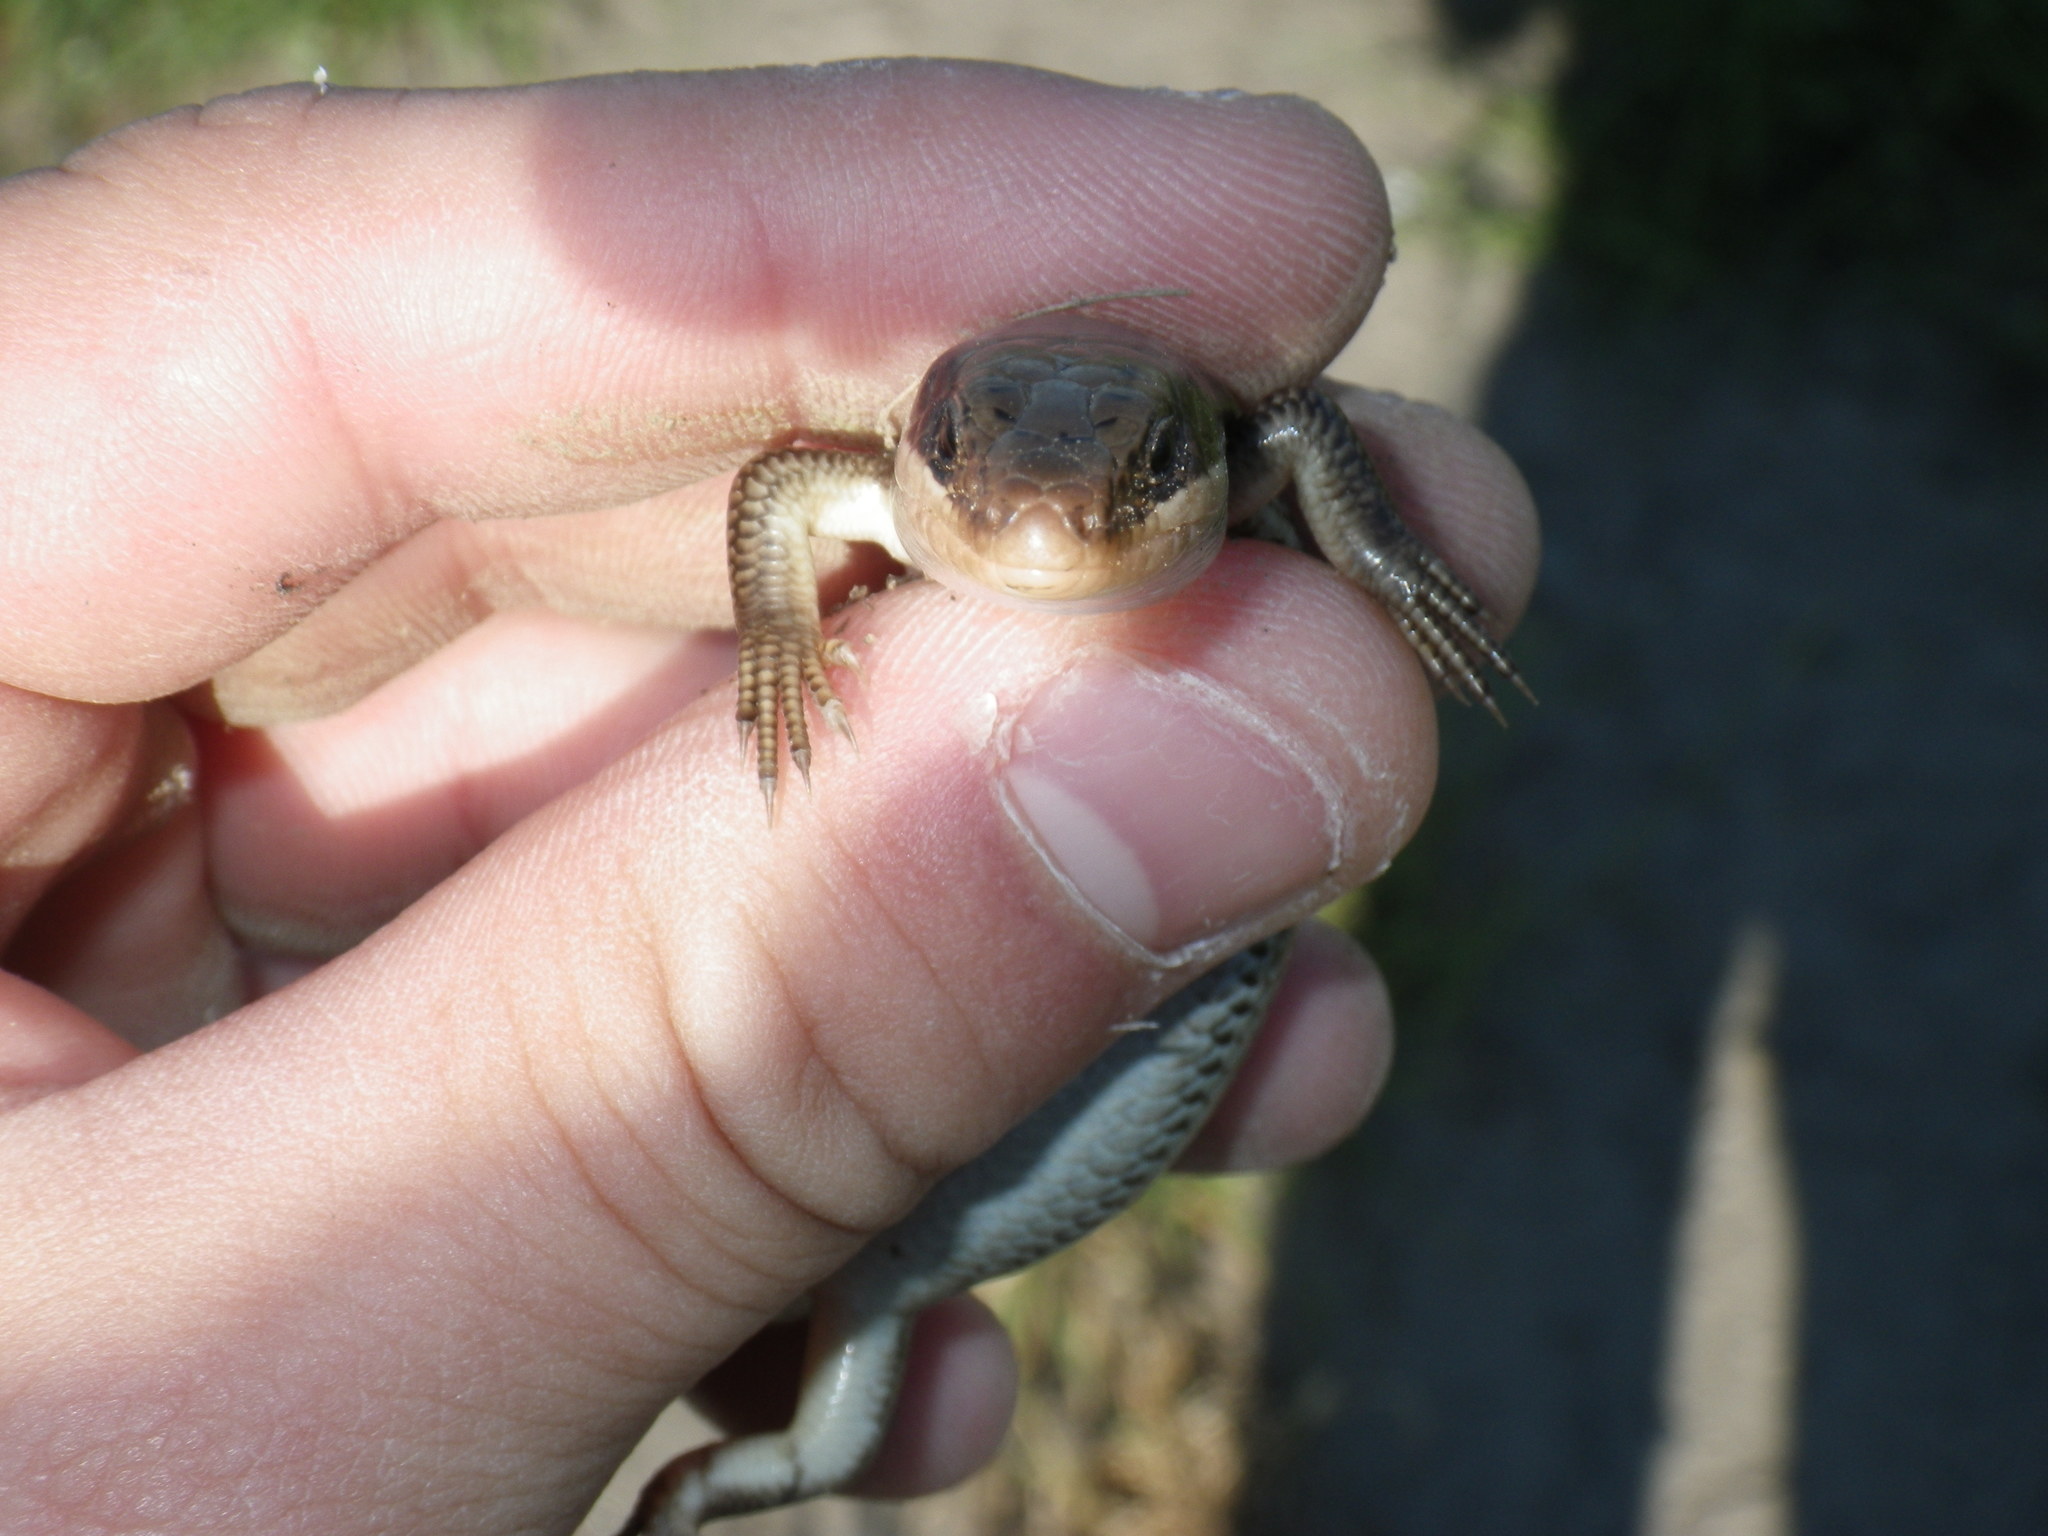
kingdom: Animalia
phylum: Chordata
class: Squamata
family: Scincidae
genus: Plestiodon
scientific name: Plestiodon gilberti
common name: Gilbert's skink
